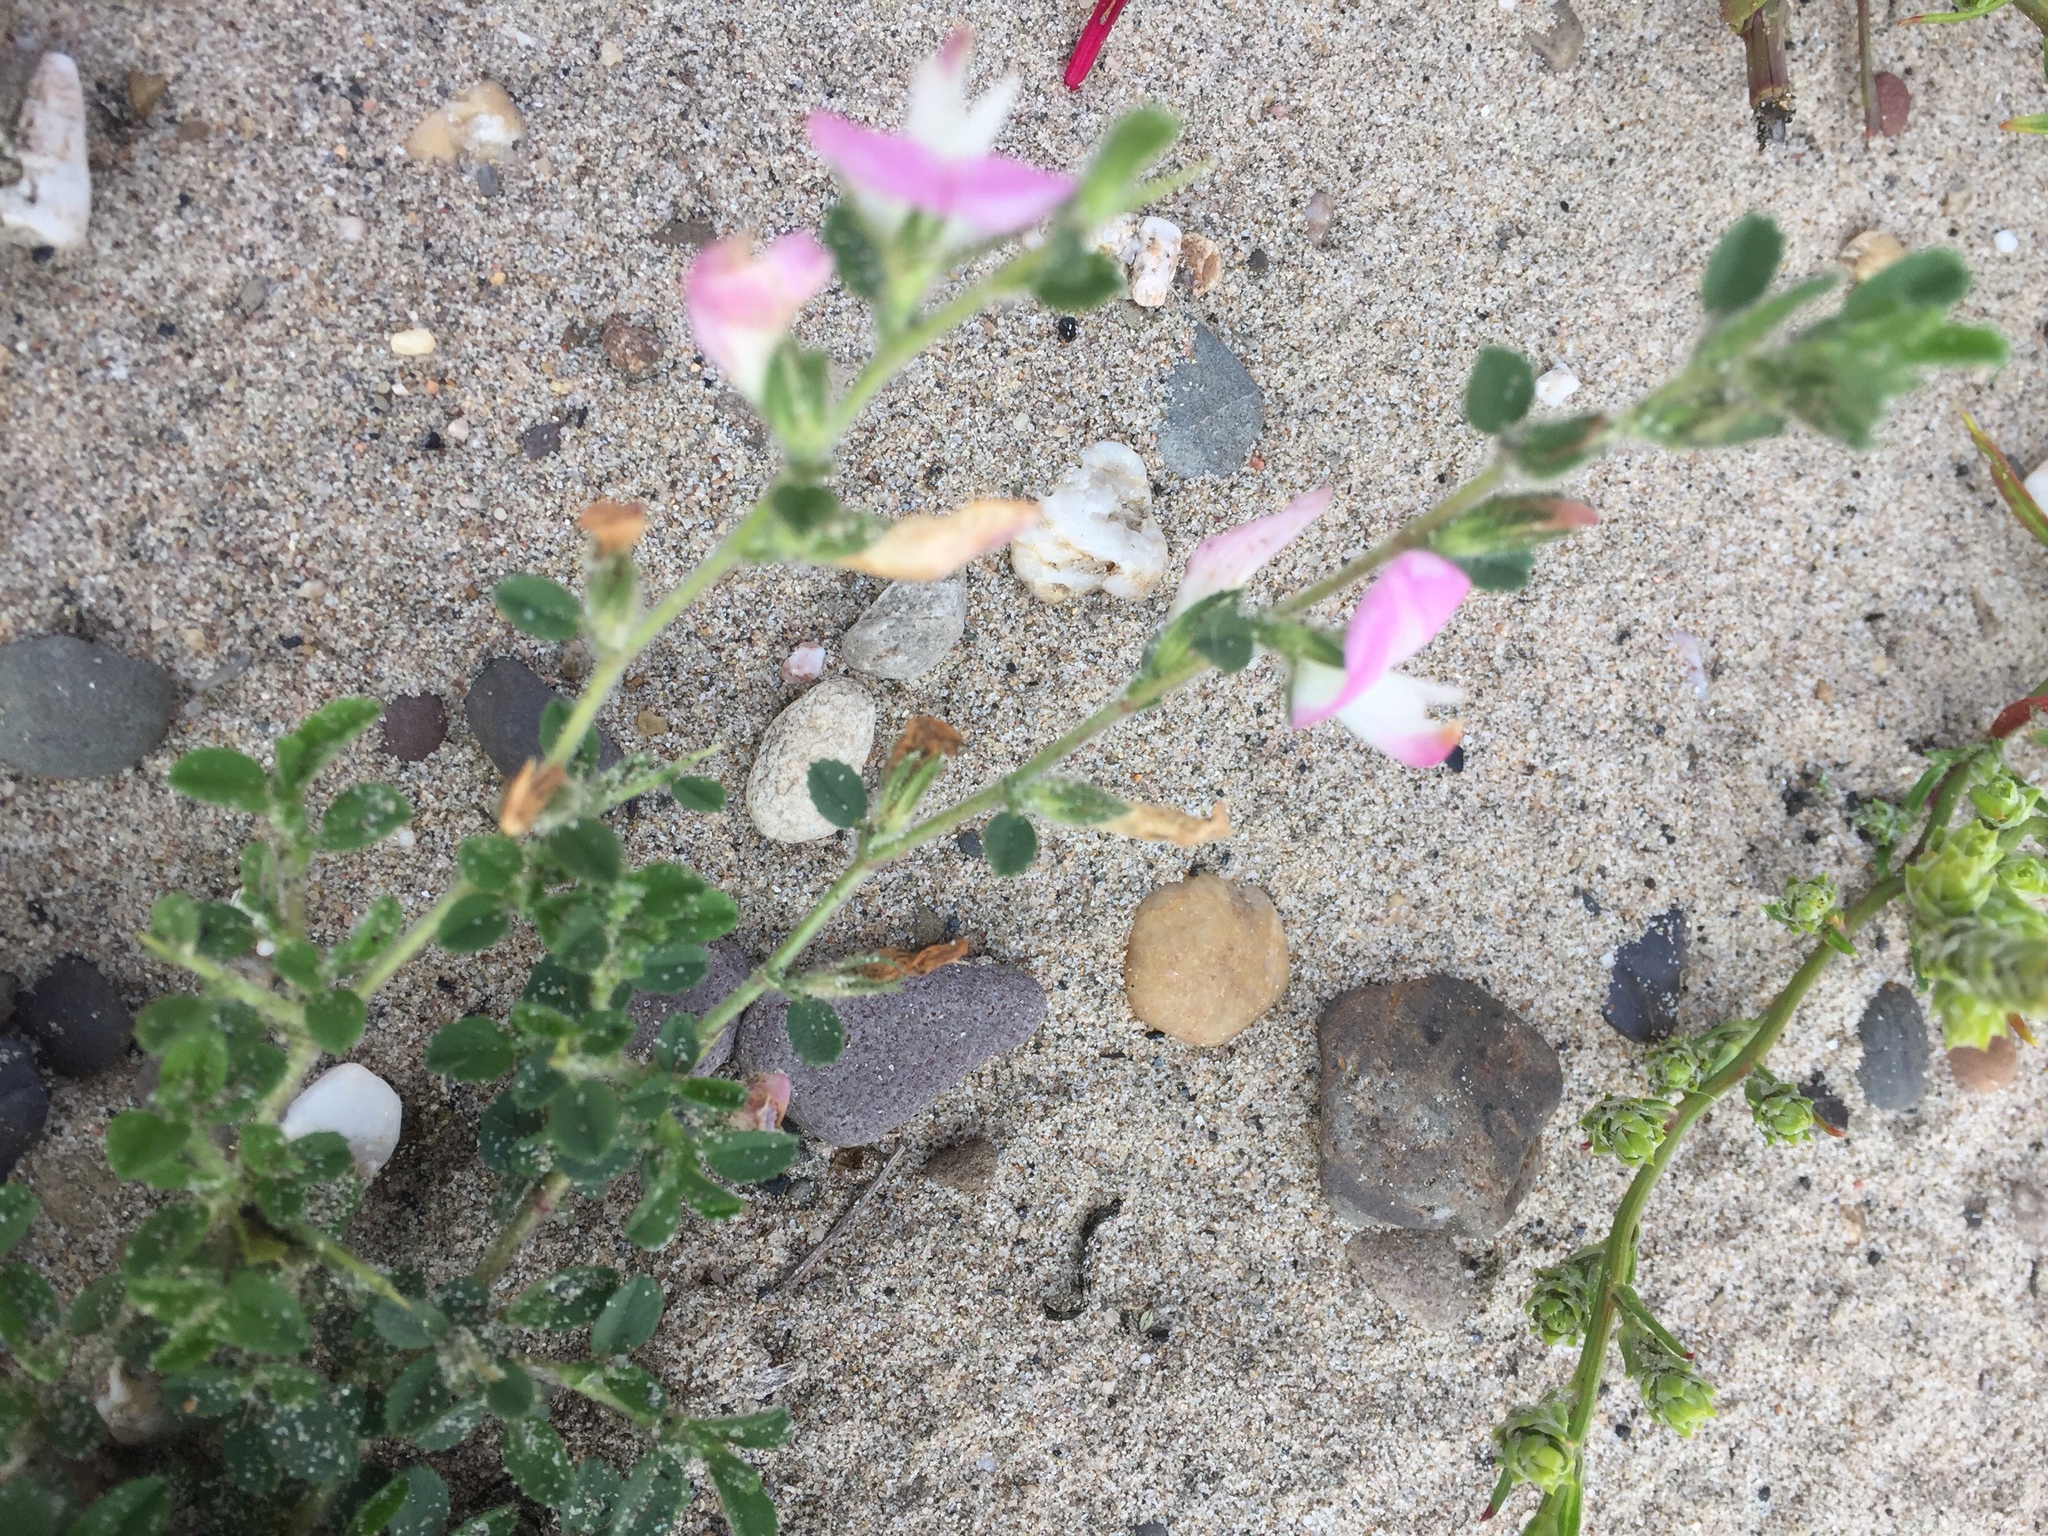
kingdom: Plantae
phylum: Tracheophyta
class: Magnoliopsida
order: Fabales
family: Fabaceae
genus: Ononis
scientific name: Ononis spinosa
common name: Spiny restharrow
